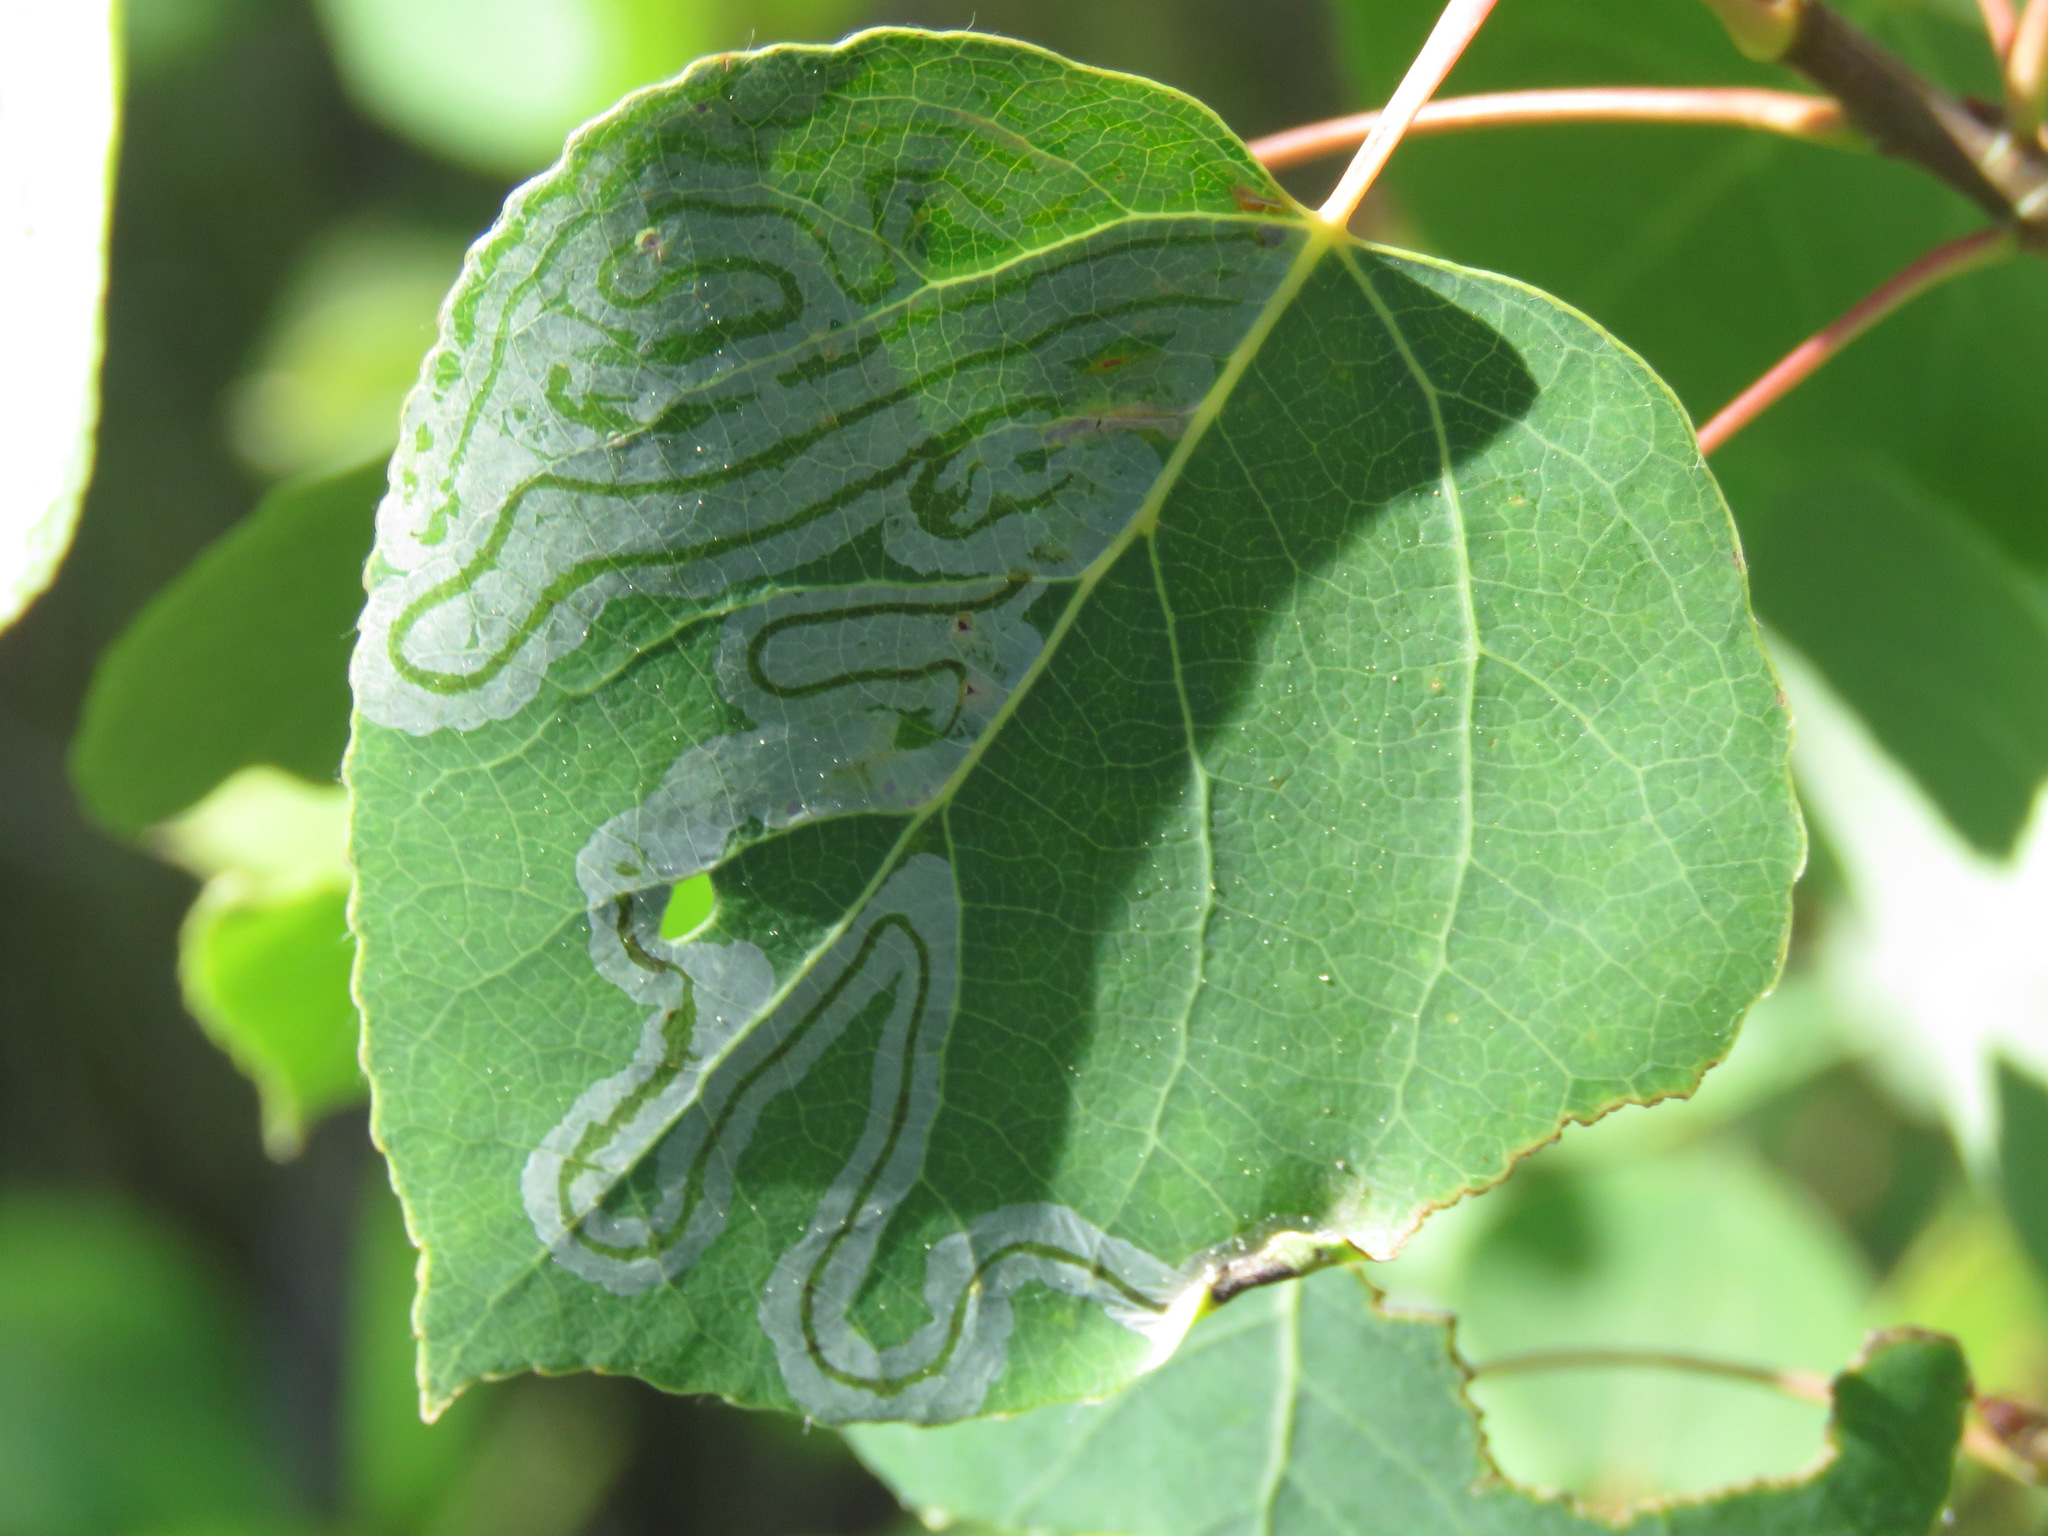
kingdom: Animalia
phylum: Arthropoda
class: Insecta
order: Lepidoptera
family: Gracillariidae
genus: Phyllocnistis
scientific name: Phyllocnistis populiella
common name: Aspen serpentine leafminer moth
